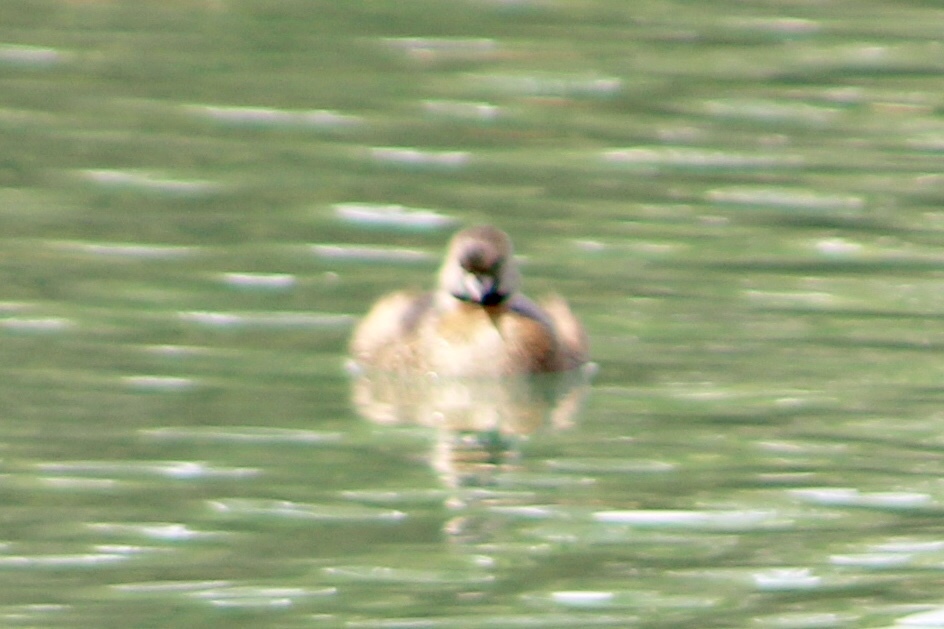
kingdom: Animalia
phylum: Chordata
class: Aves
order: Podicipediformes
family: Podicipedidae
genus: Podilymbus
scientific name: Podilymbus podiceps
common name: Pied-billed grebe
